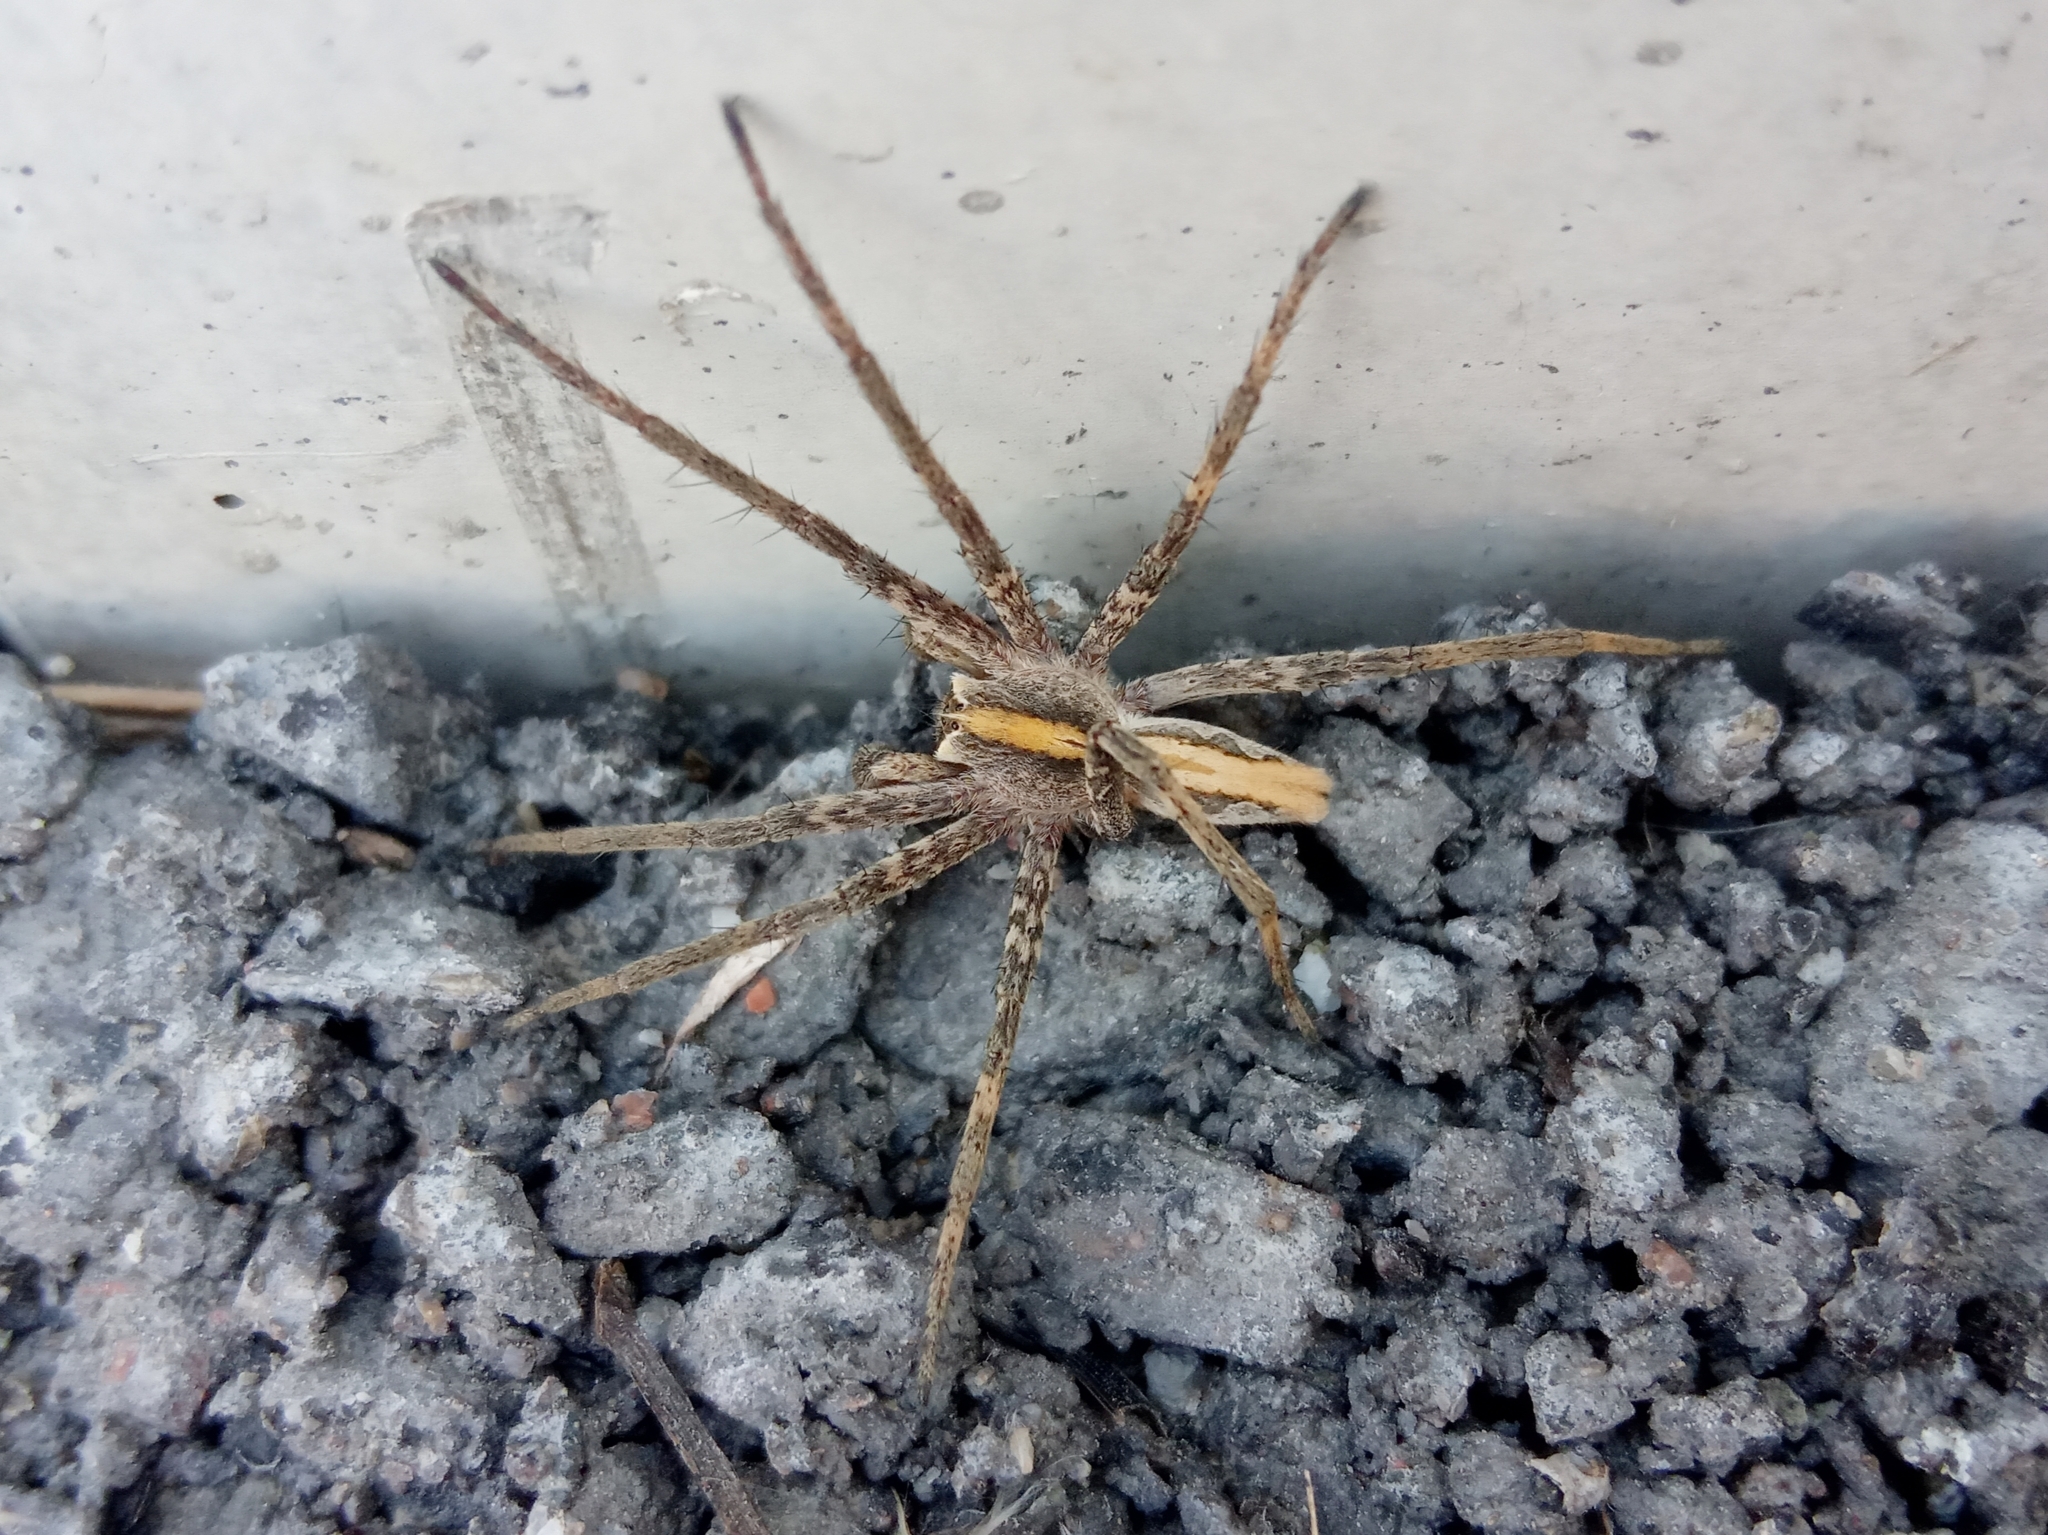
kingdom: Animalia
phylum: Arthropoda
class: Arachnida
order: Araneae
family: Pisauridae
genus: Pisaura
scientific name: Pisaura
